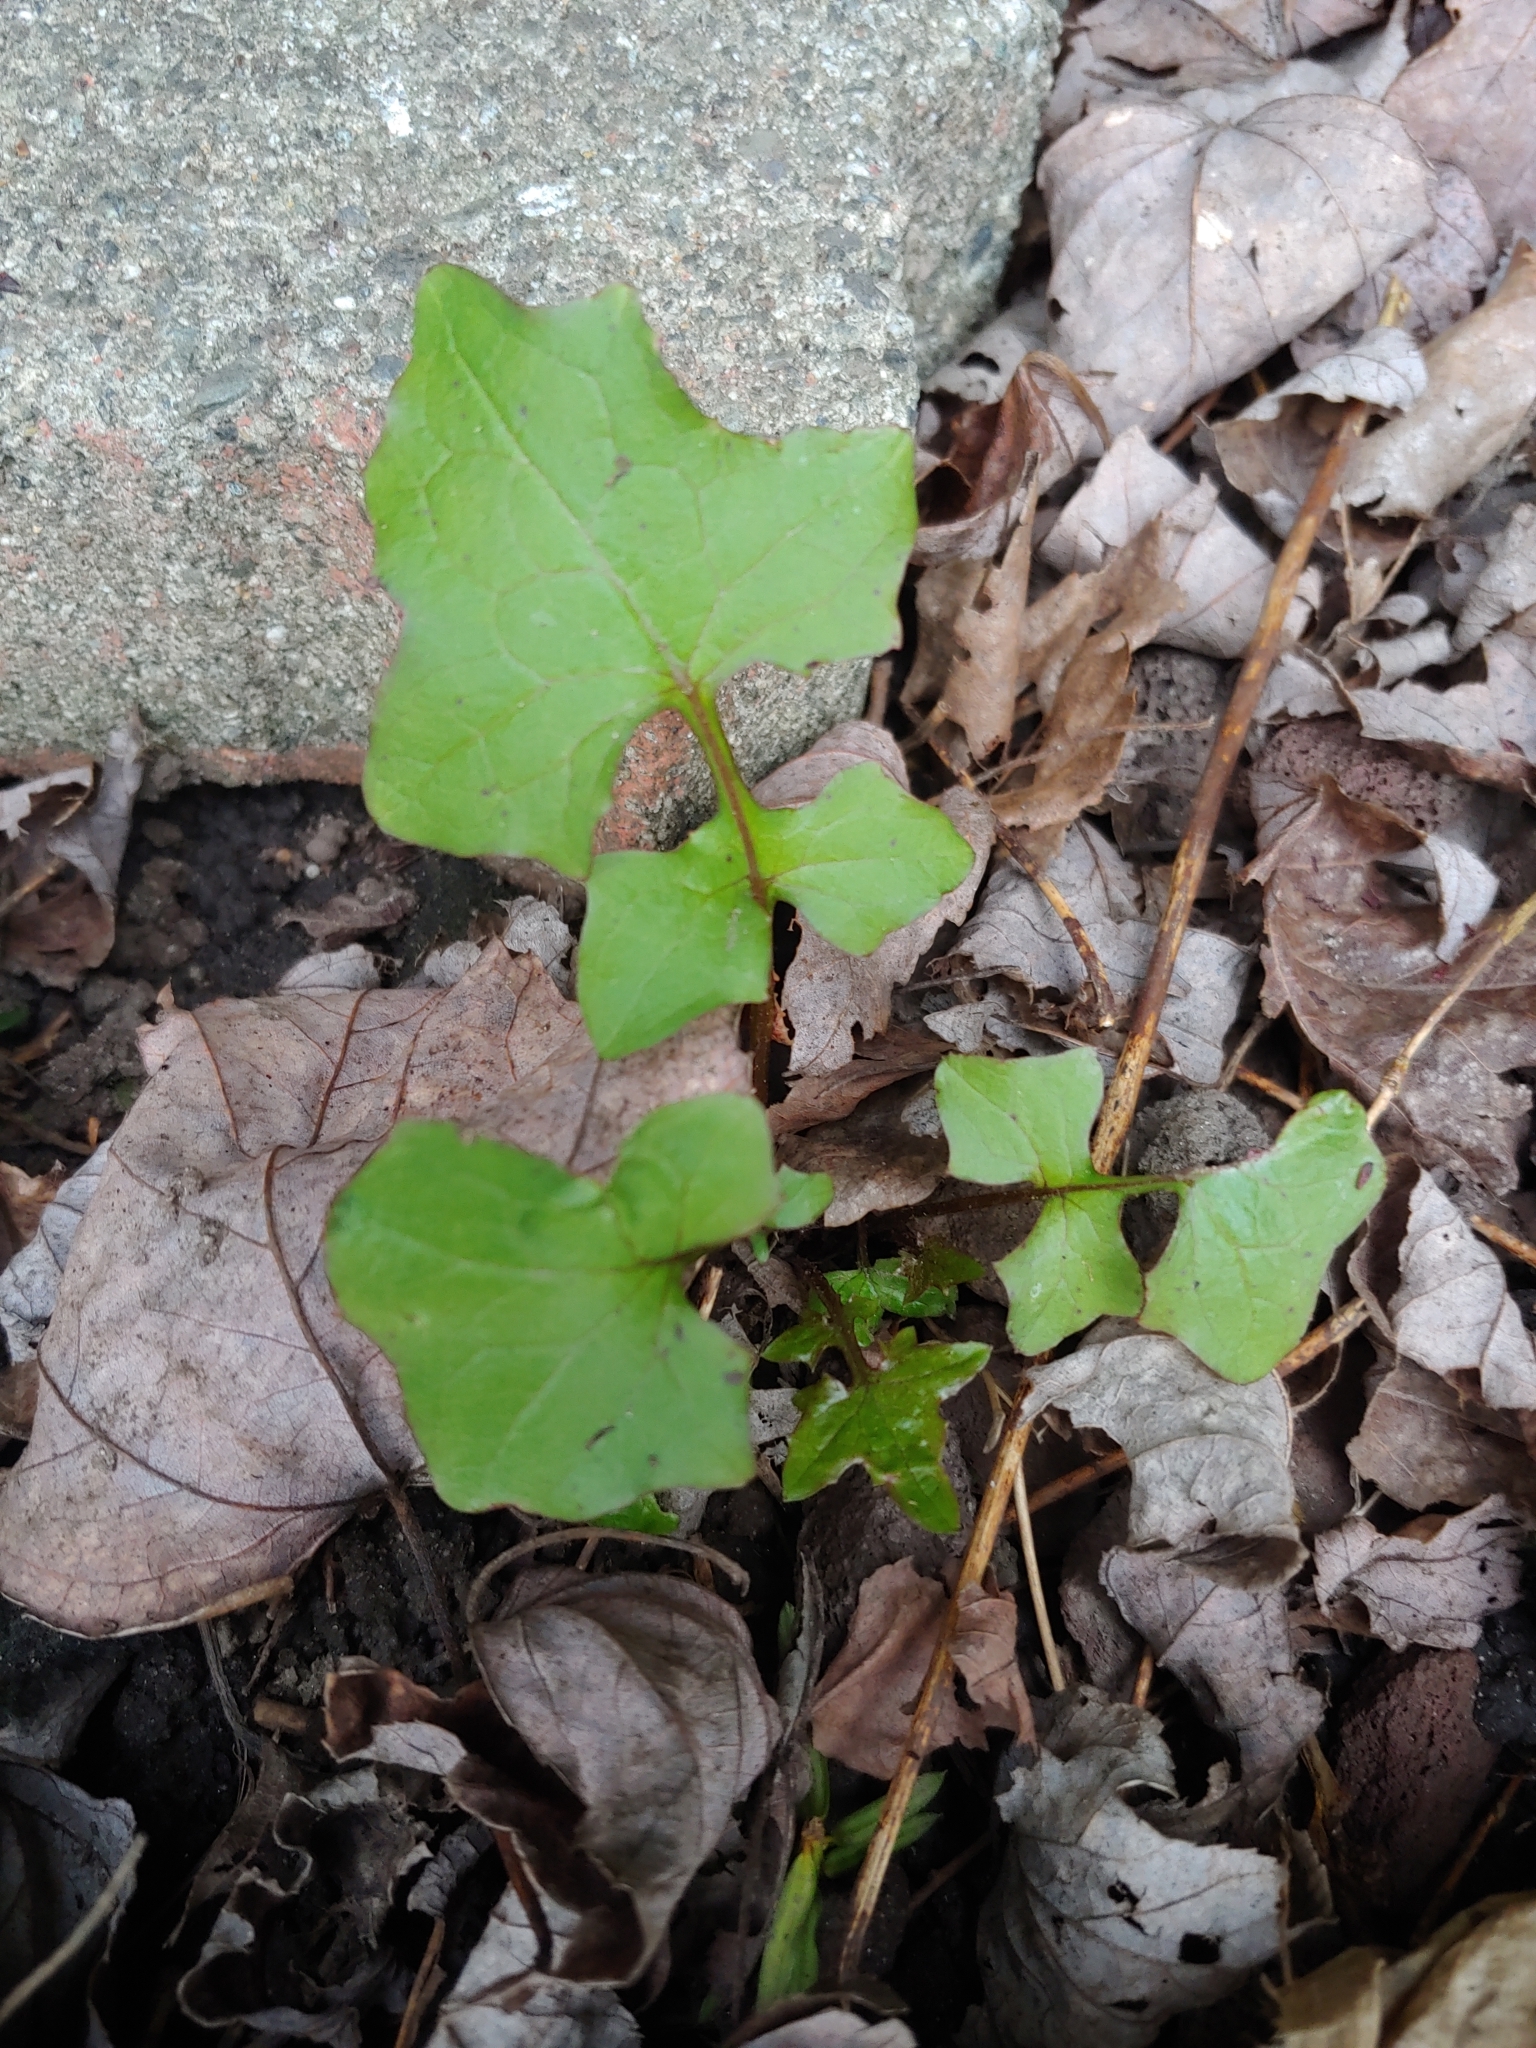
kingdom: Plantae
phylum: Tracheophyta
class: Magnoliopsida
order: Asterales
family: Asteraceae
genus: Mycelis
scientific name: Mycelis muralis
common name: Wall lettuce
